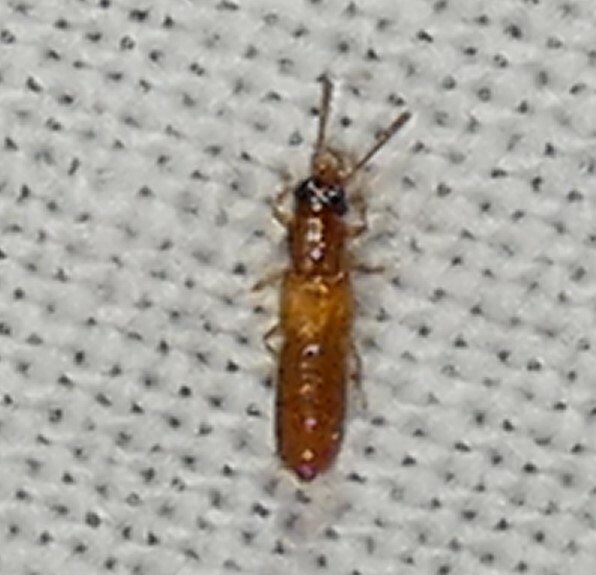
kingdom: Animalia
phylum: Arthropoda
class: Insecta
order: Coleoptera
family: Staphylinidae
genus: Manda
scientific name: Manda nearctica
